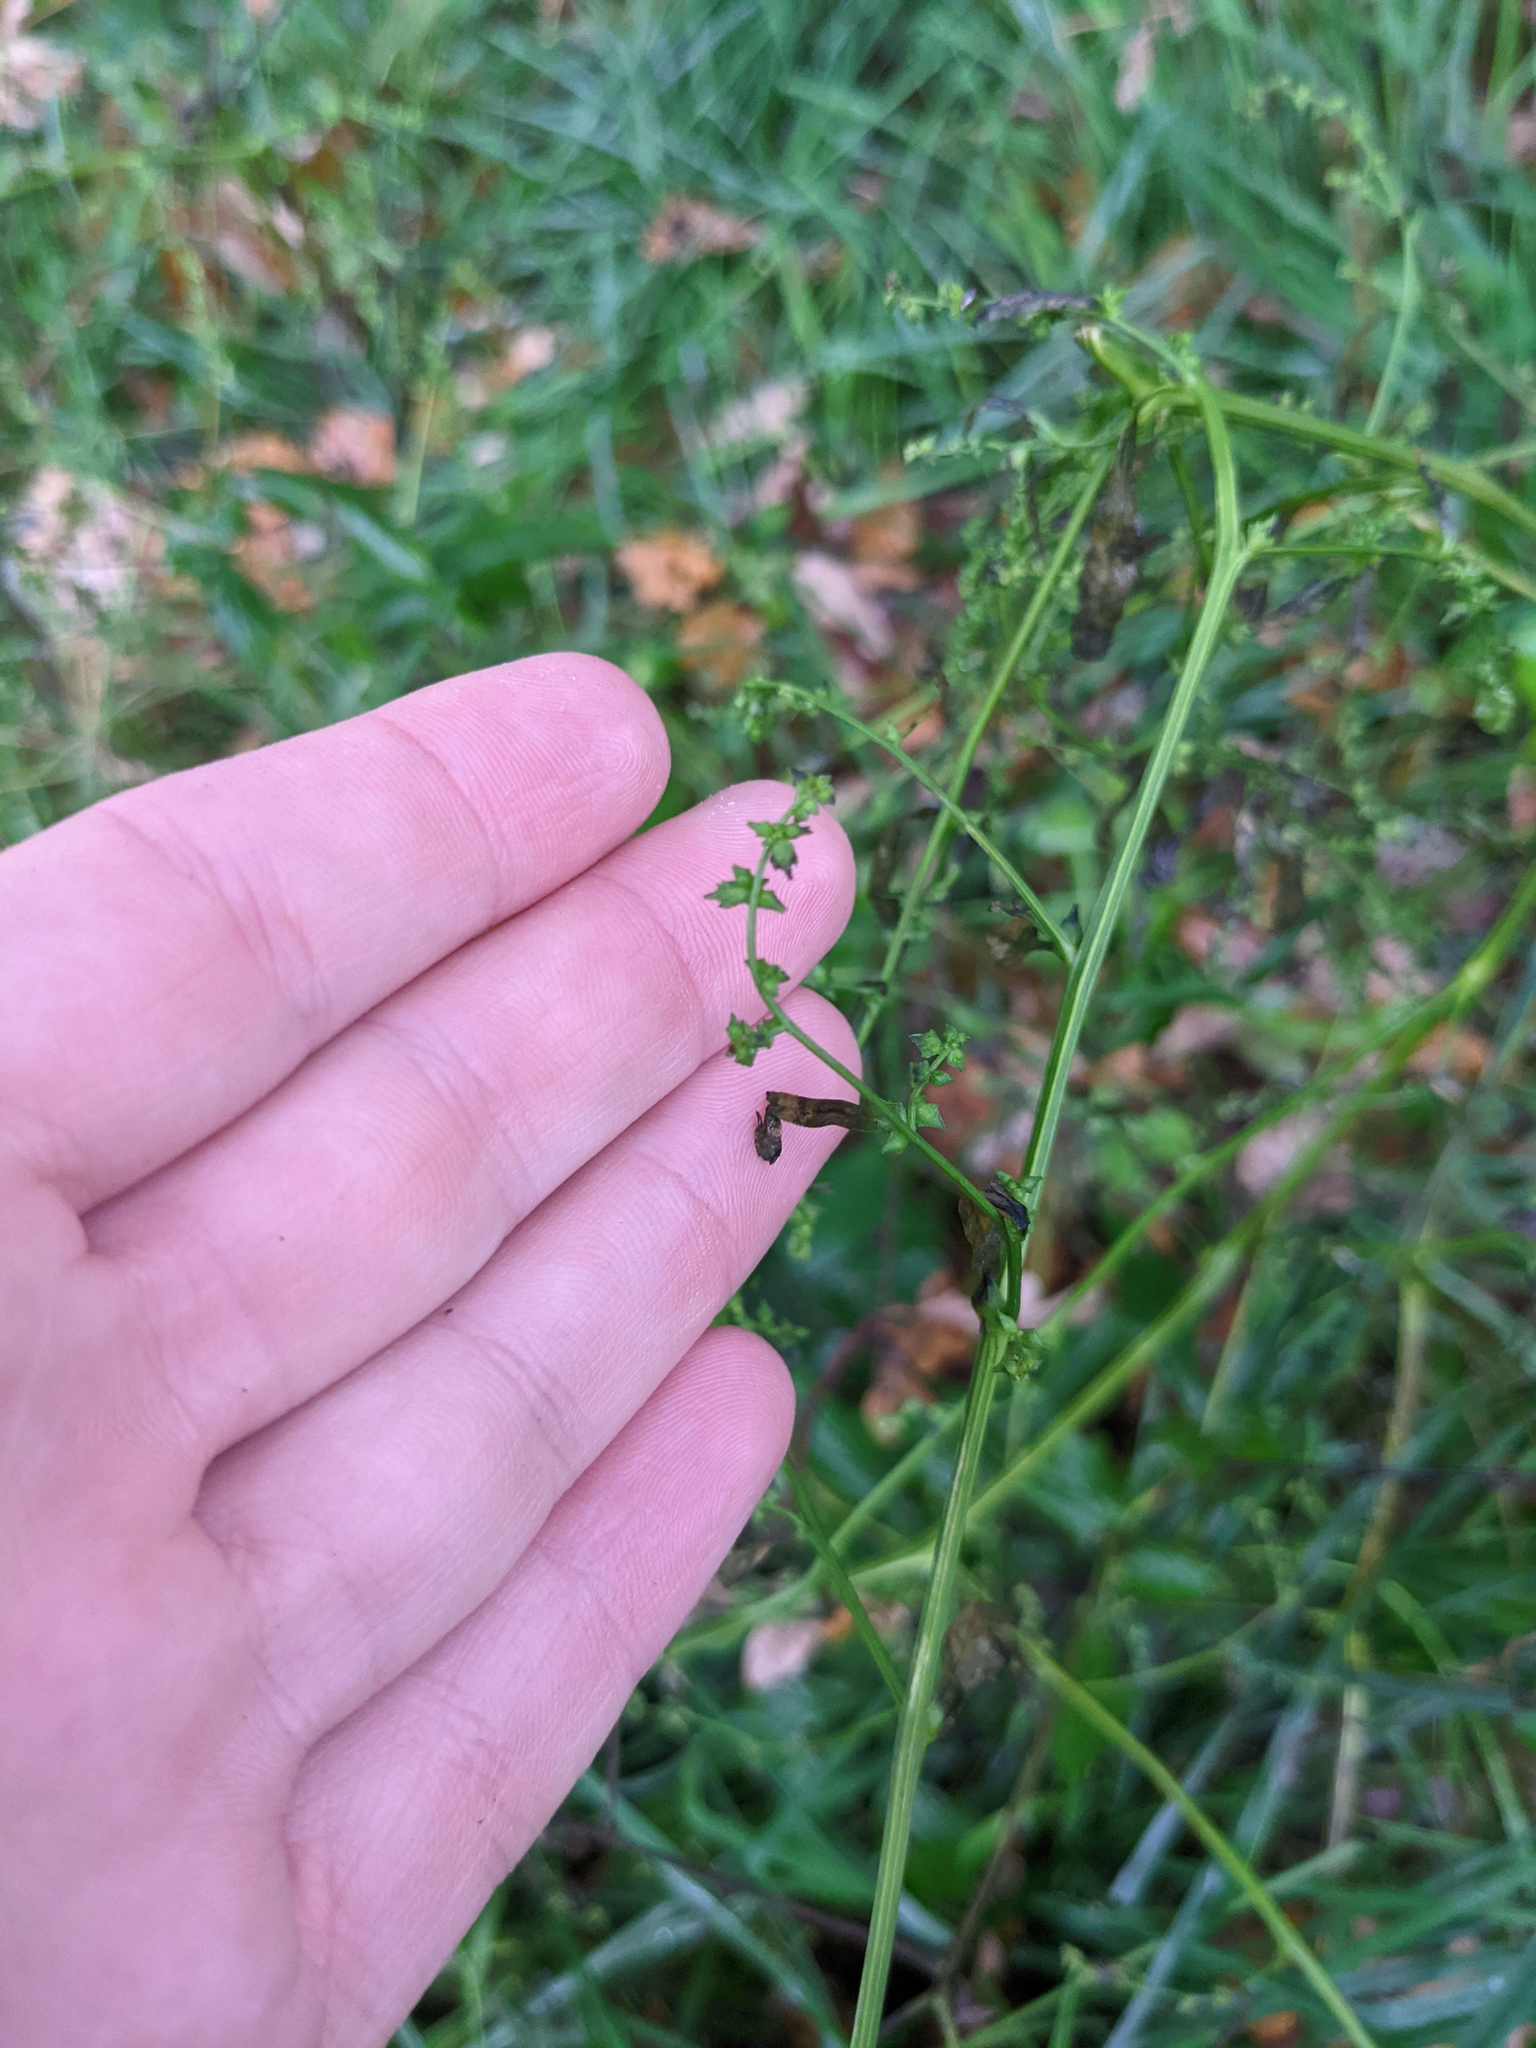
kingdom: Plantae
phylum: Tracheophyta
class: Magnoliopsida
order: Caryophyllales
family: Amaranthaceae
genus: Atriplex
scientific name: Atriplex patula
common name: Common orache
